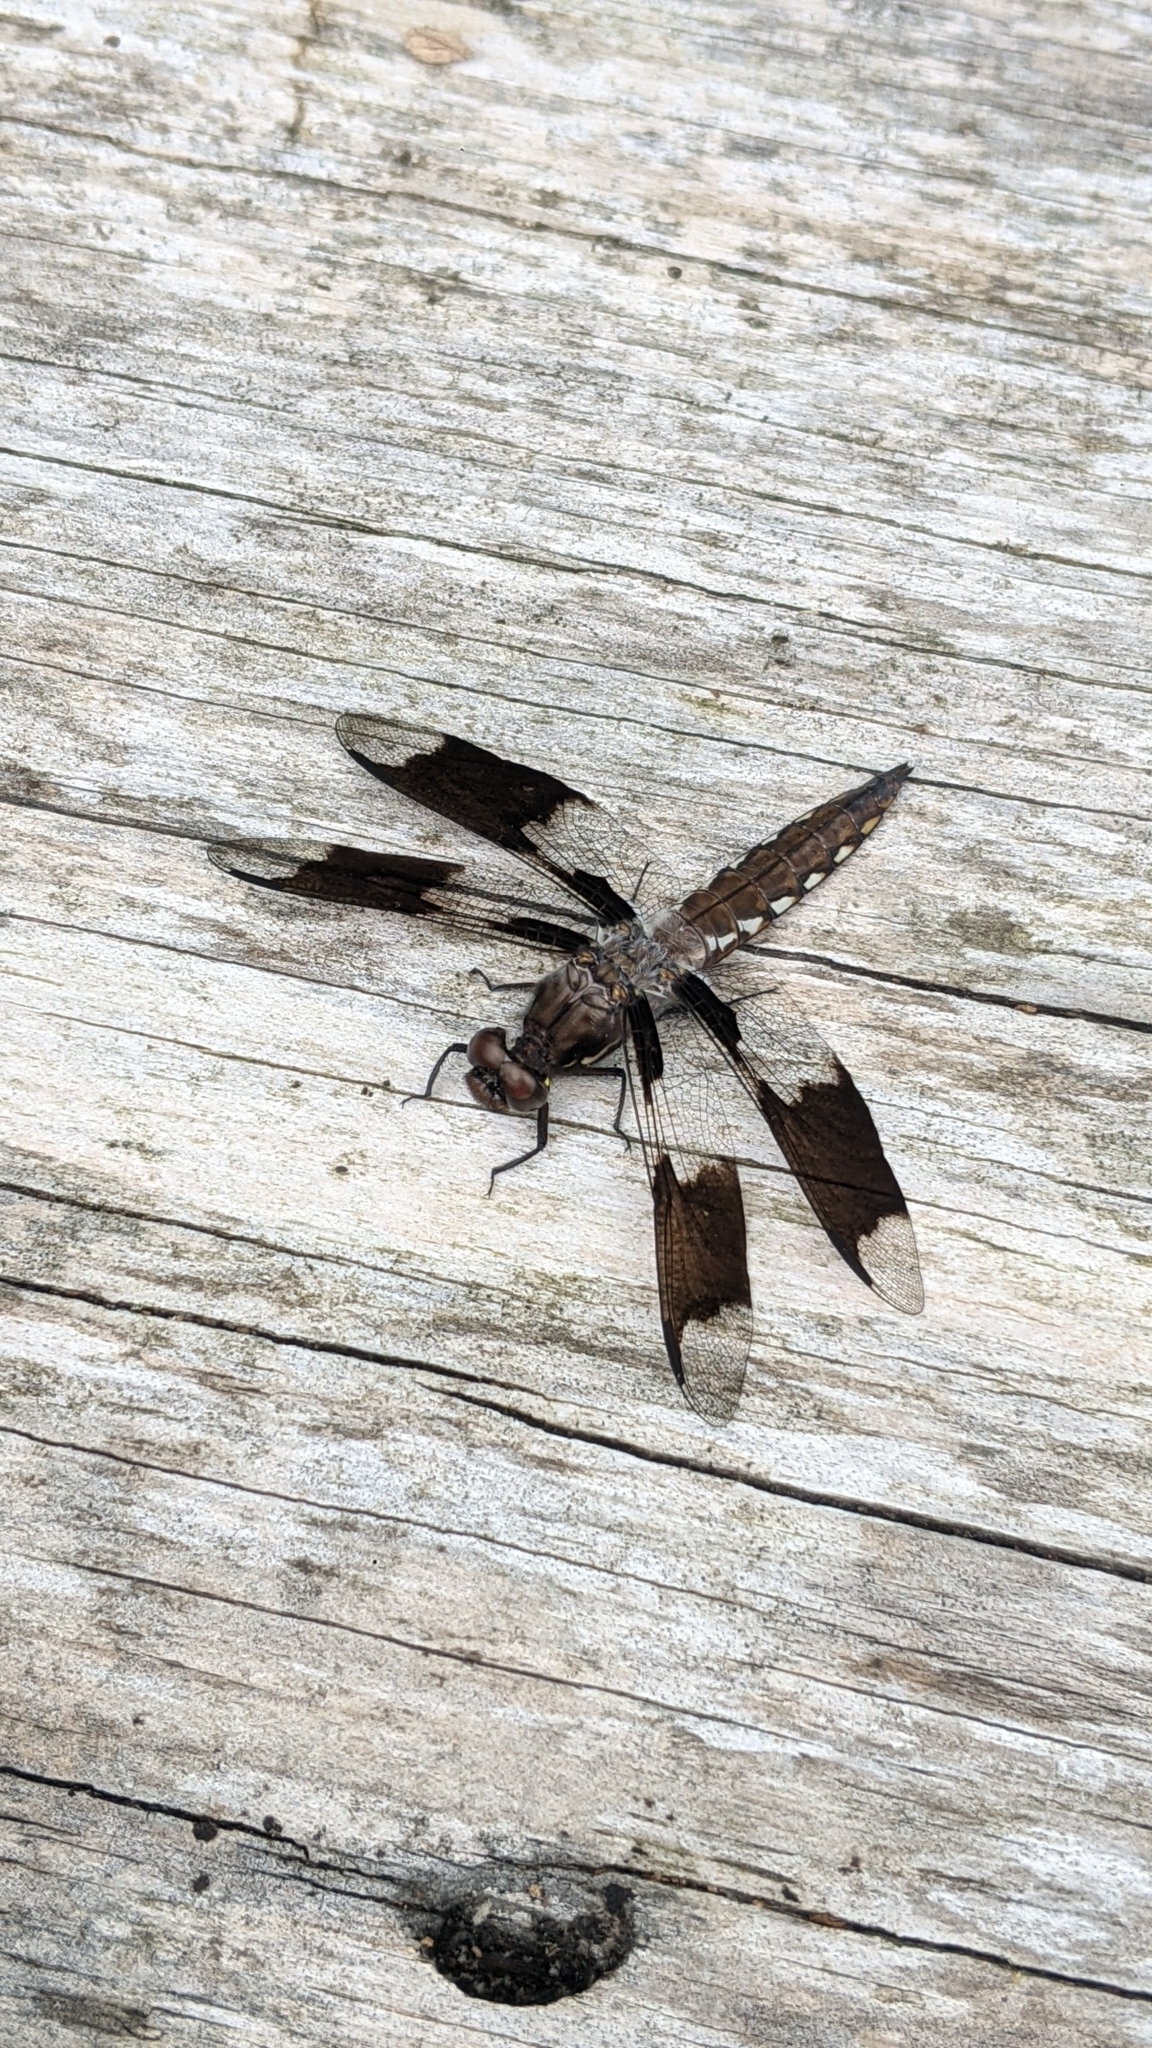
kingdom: Animalia
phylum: Arthropoda
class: Insecta
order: Odonata
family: Libellulidae
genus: Plathemis
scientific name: Plathemis lydia
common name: Common whitetail
